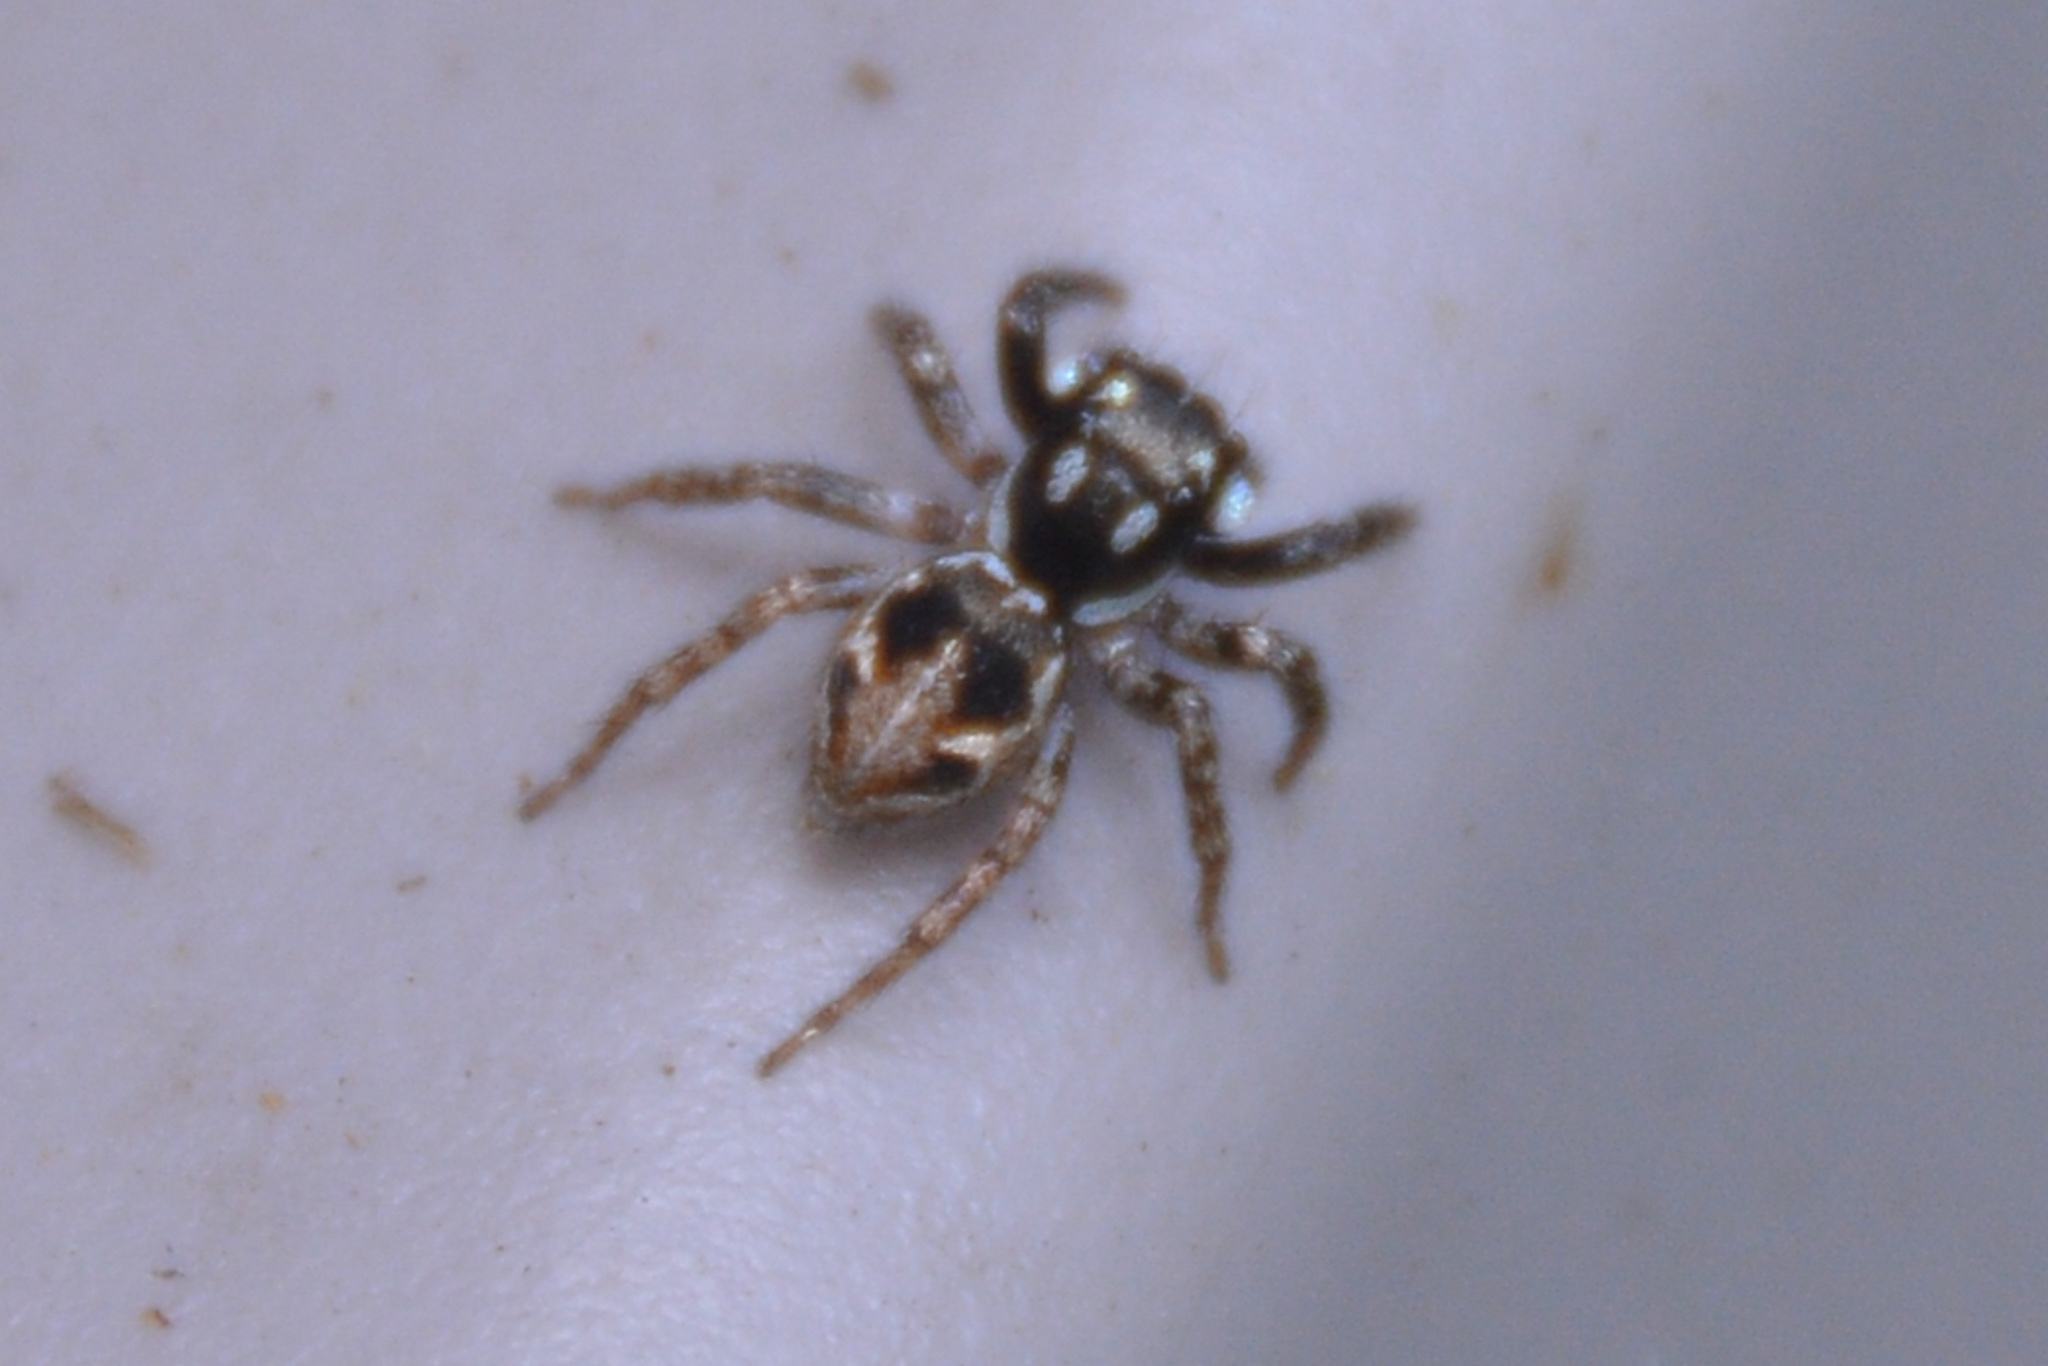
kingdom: Animalia
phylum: Arthropoda
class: Arachnida
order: Araneae
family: Salticidae
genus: Anasaitis
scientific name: Anasaitis canosa
